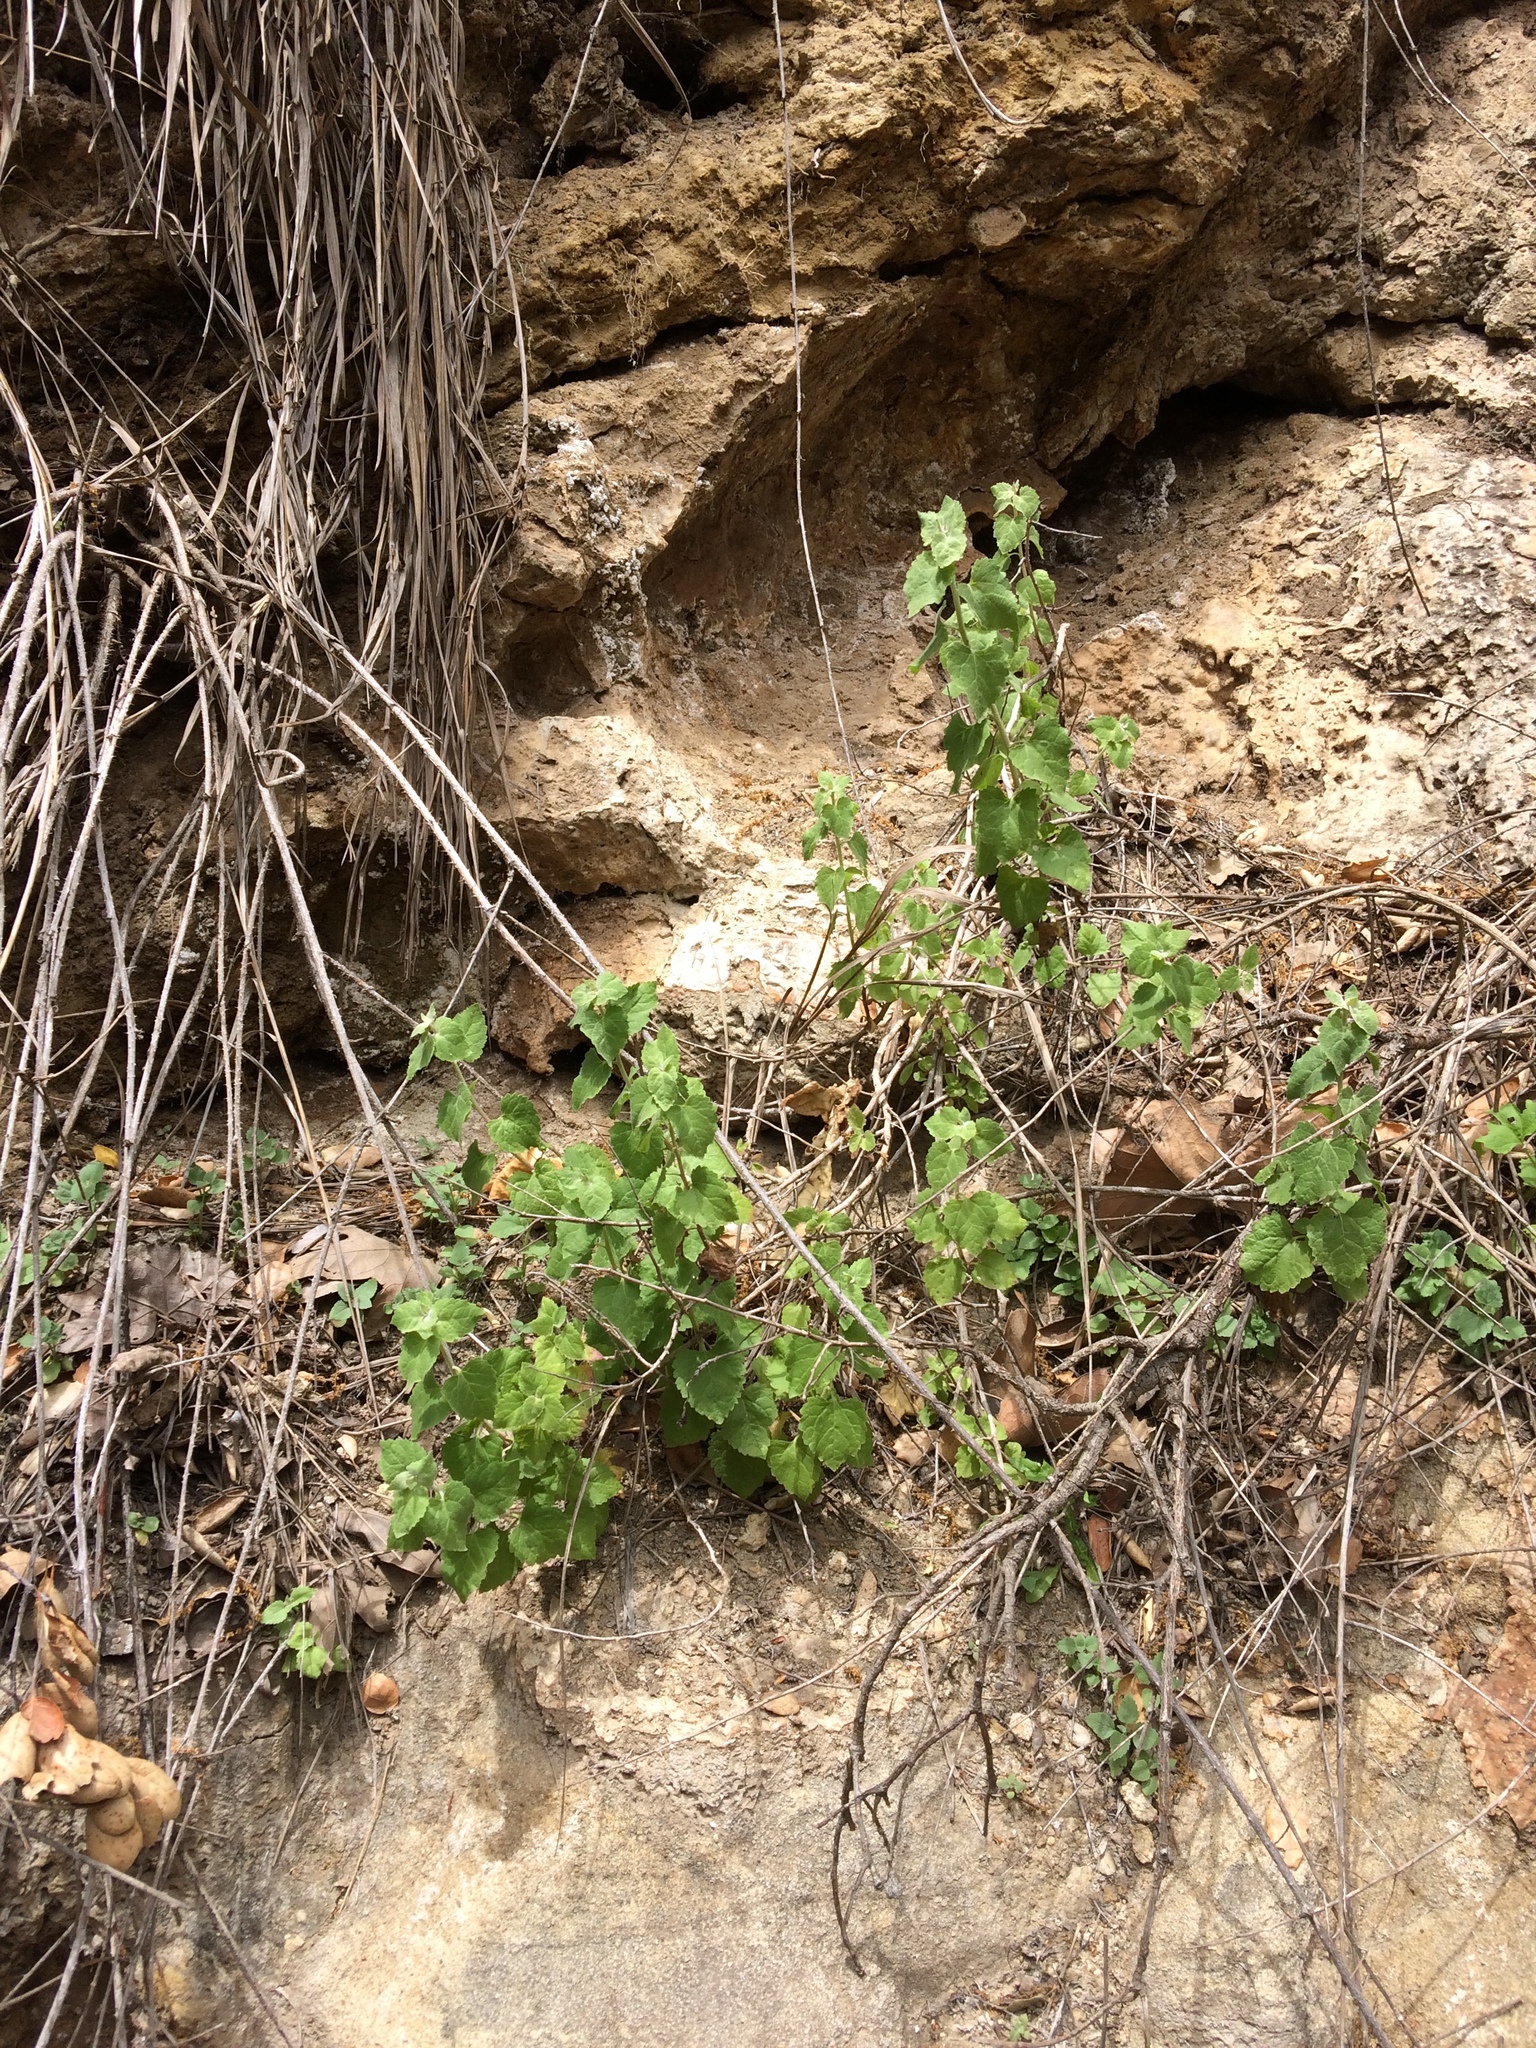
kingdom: Plantae
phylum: Tracheophyta
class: Magnoliopsida
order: Asterales
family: Asteraceae
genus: Brickellia
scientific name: Brickellia californica
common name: California brickellbush
